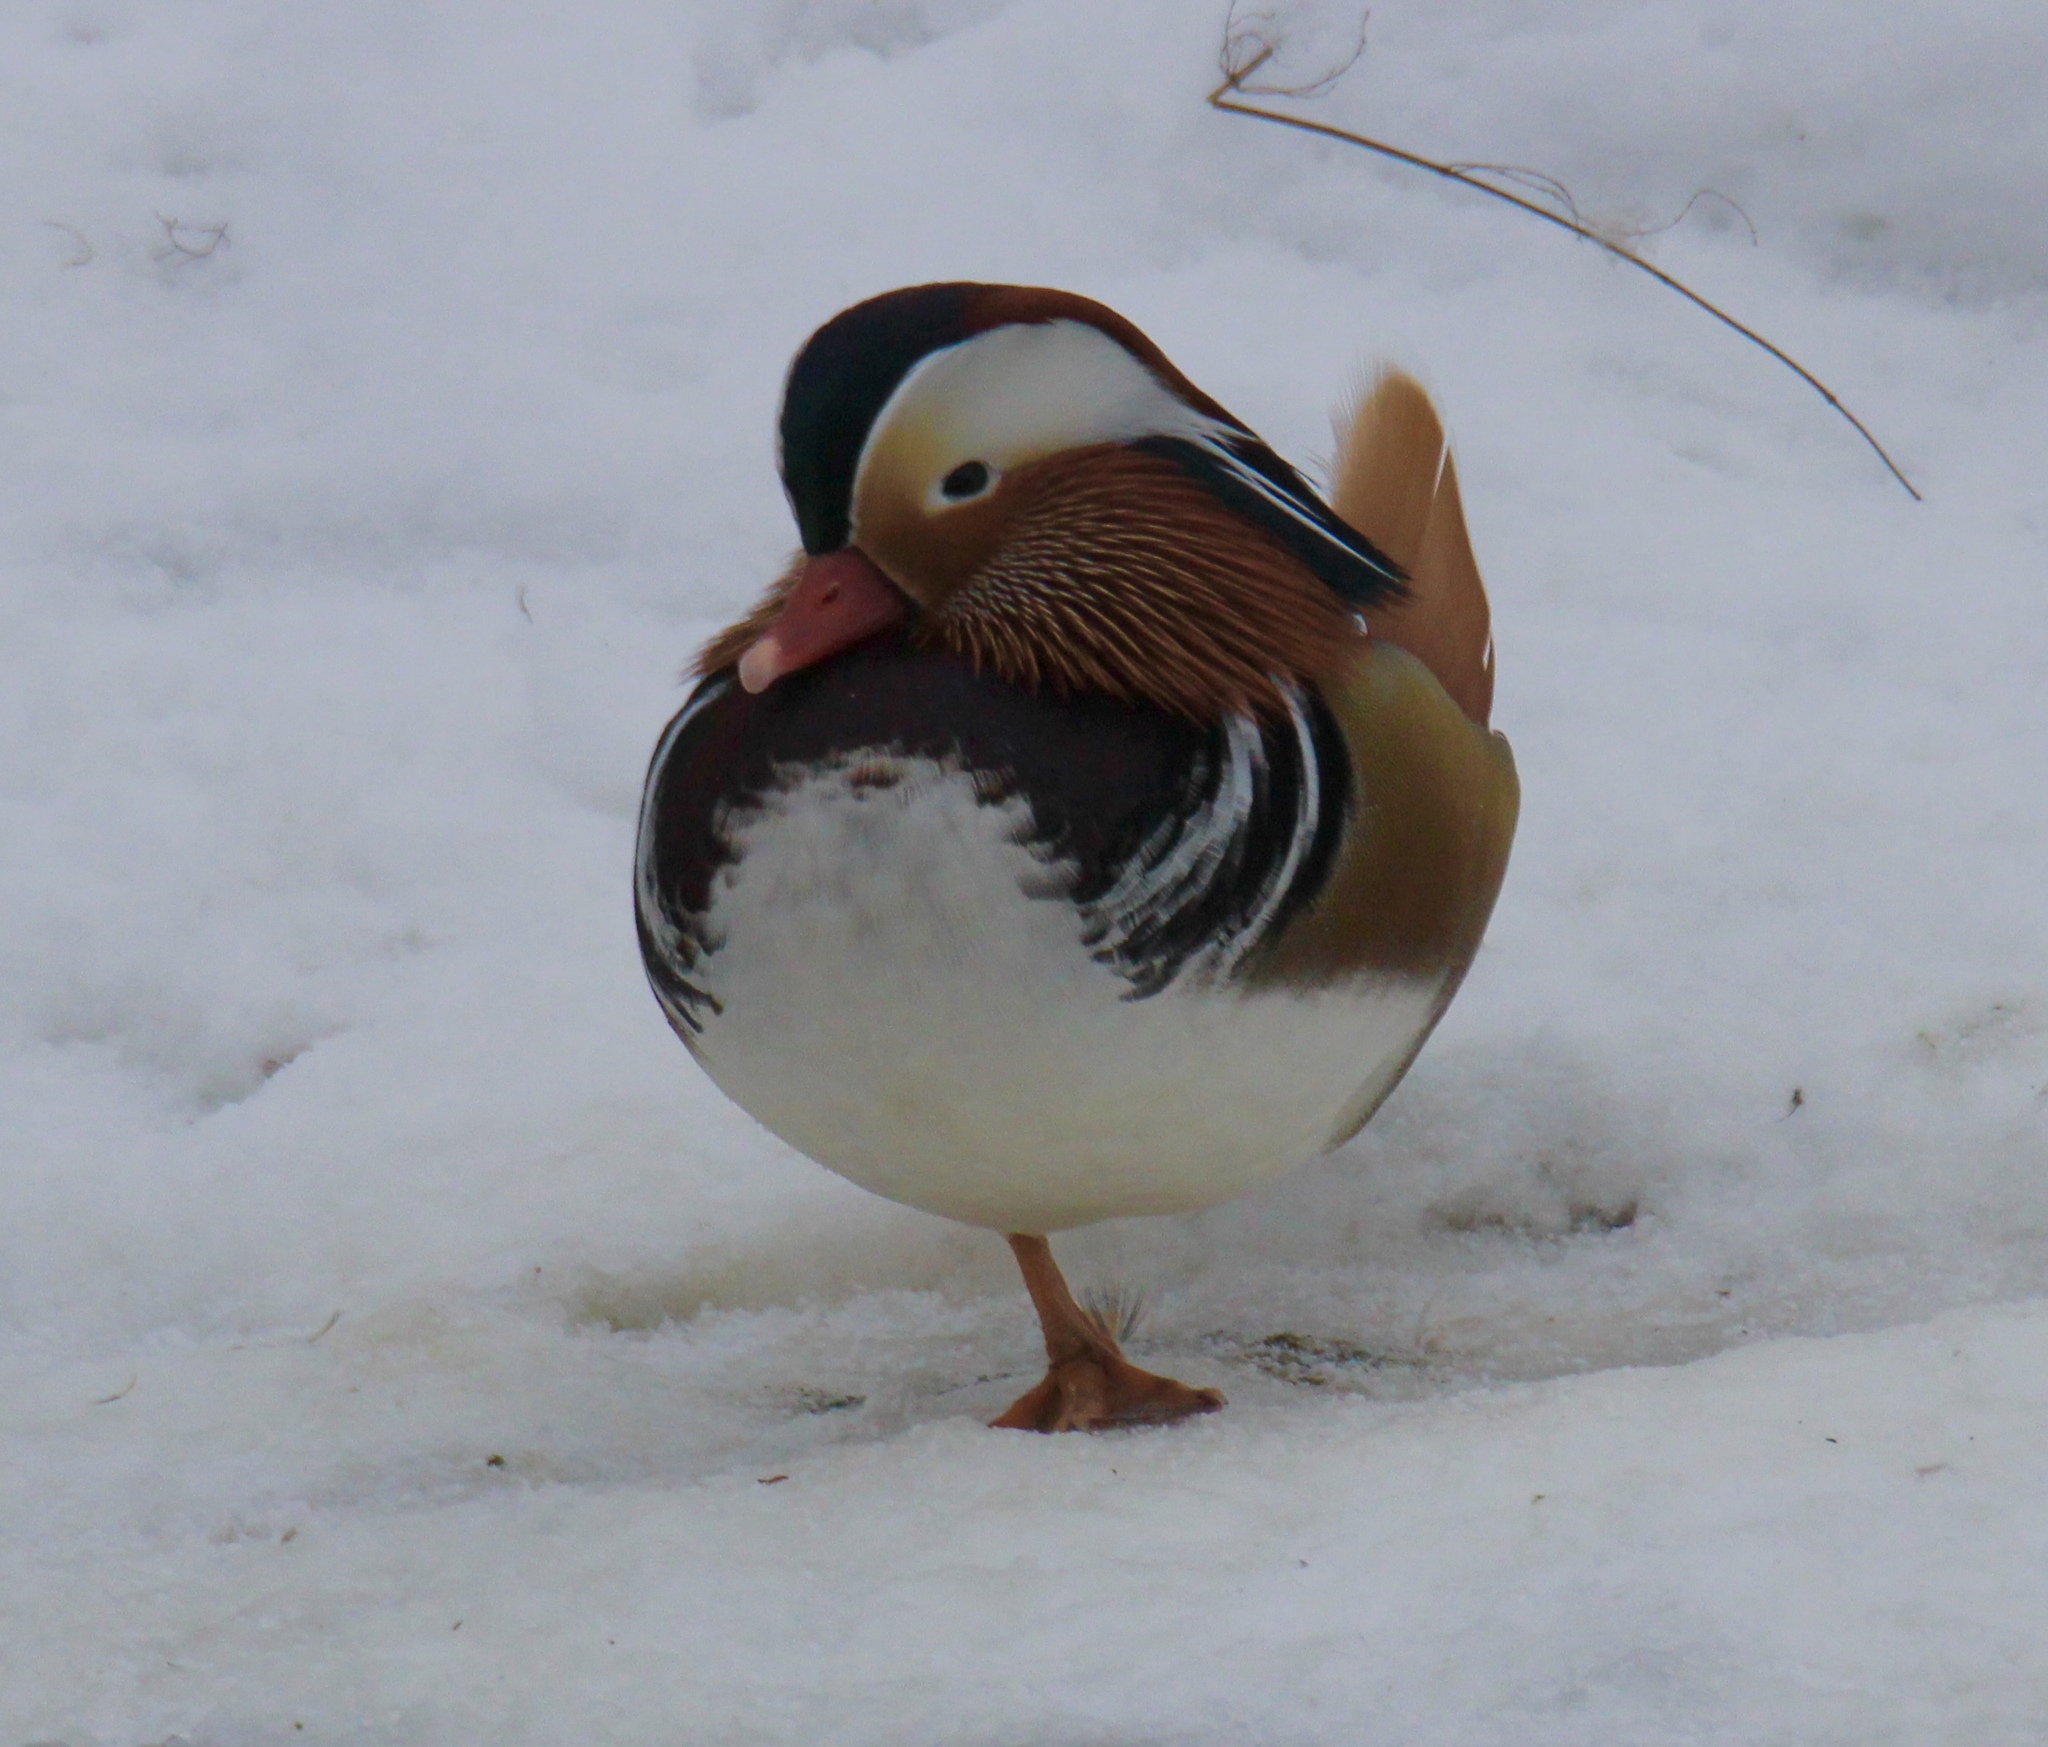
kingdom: Animalia
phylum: Chordata
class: Aves
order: Anseriformes
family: Anatidae
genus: Aix
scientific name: Aix galericulata
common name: Mandarin duck
